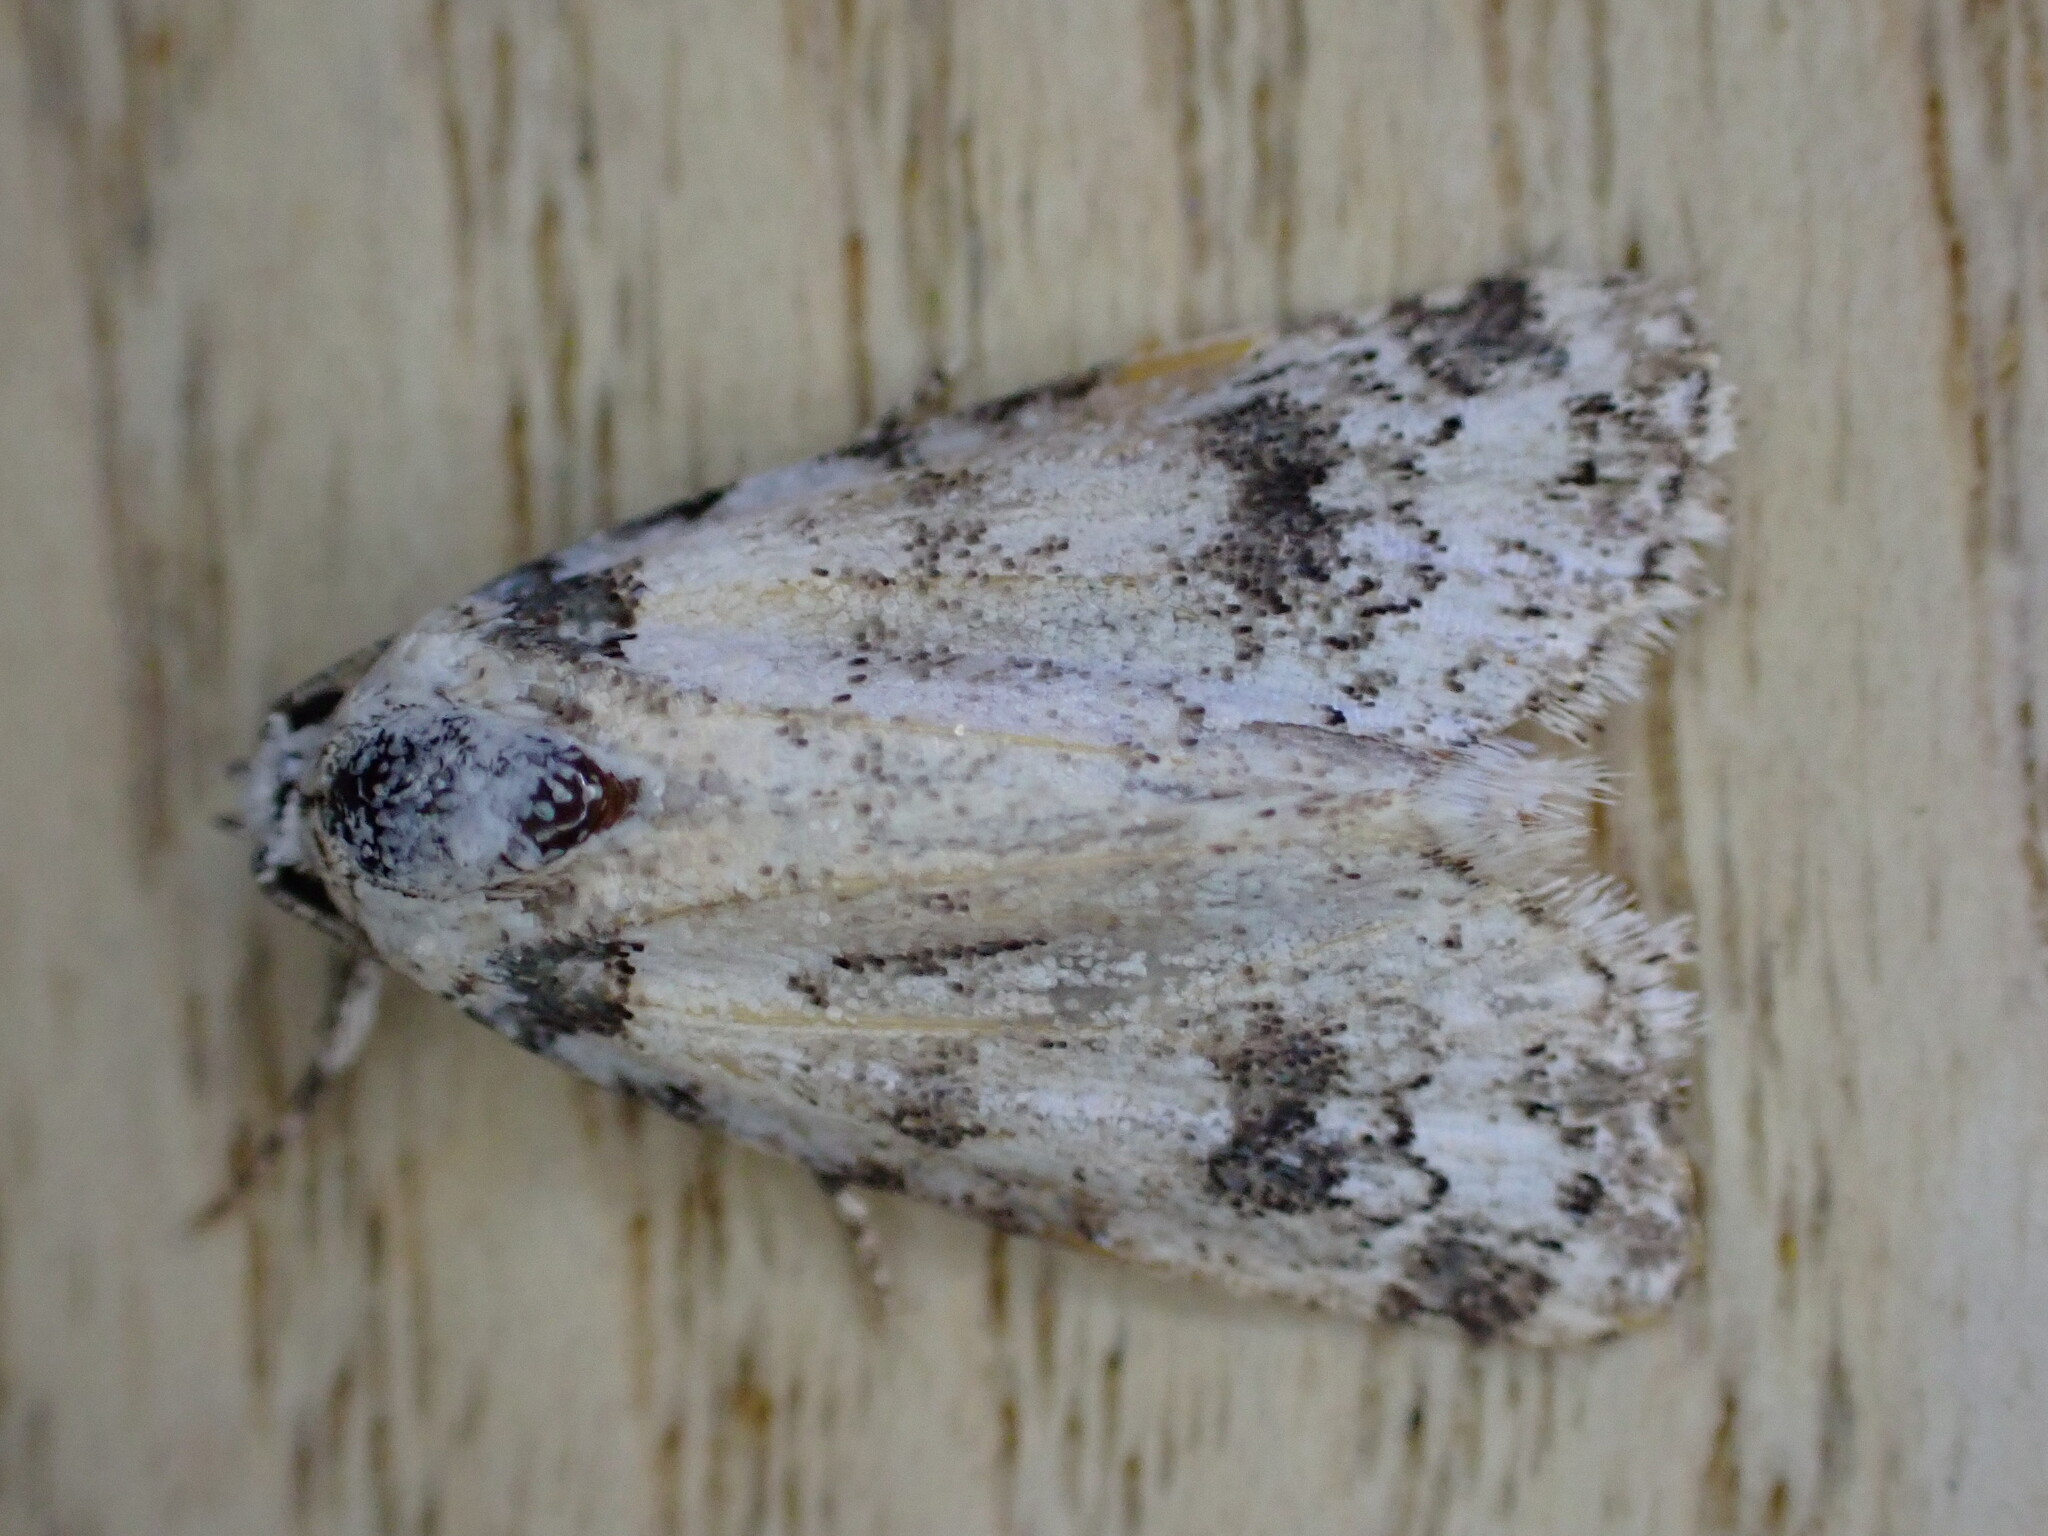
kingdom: Animalia
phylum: Arthropoda
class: Insecta
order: Lepidoptera
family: Noctuidae
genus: Bryophila
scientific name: Bryophila domestica
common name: Marbled beauty
